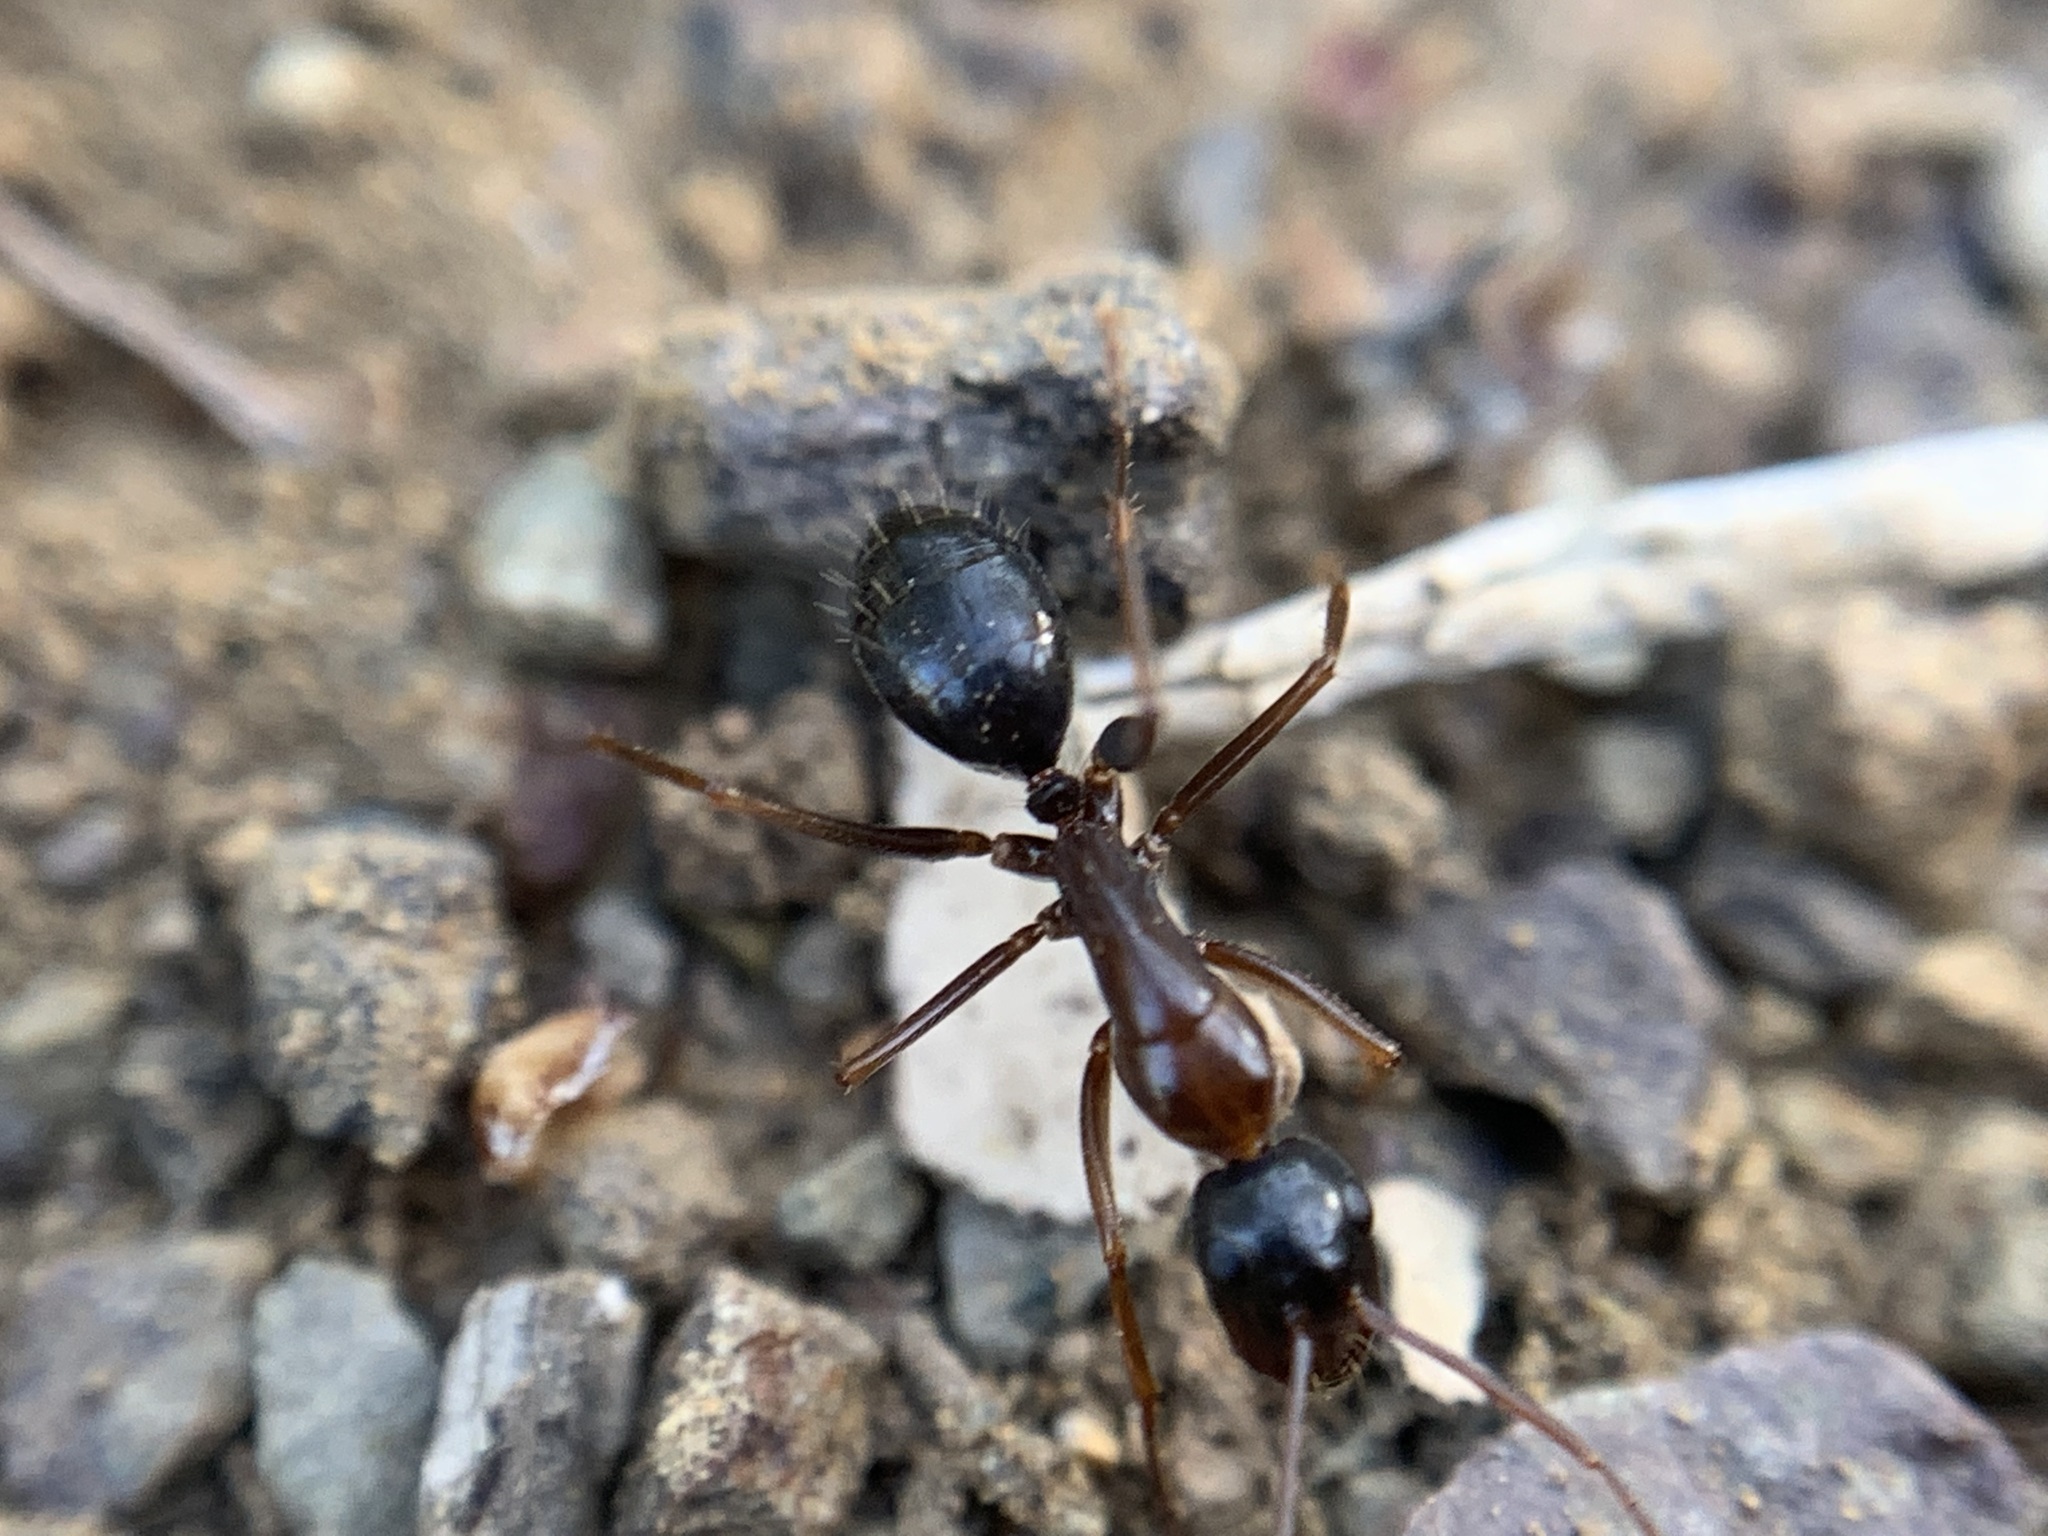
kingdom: Animalia
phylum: Arthropoda
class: Insecta
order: Hymenoptera
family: Formicidae
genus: Camponotus
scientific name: Camponotus dumetorum
